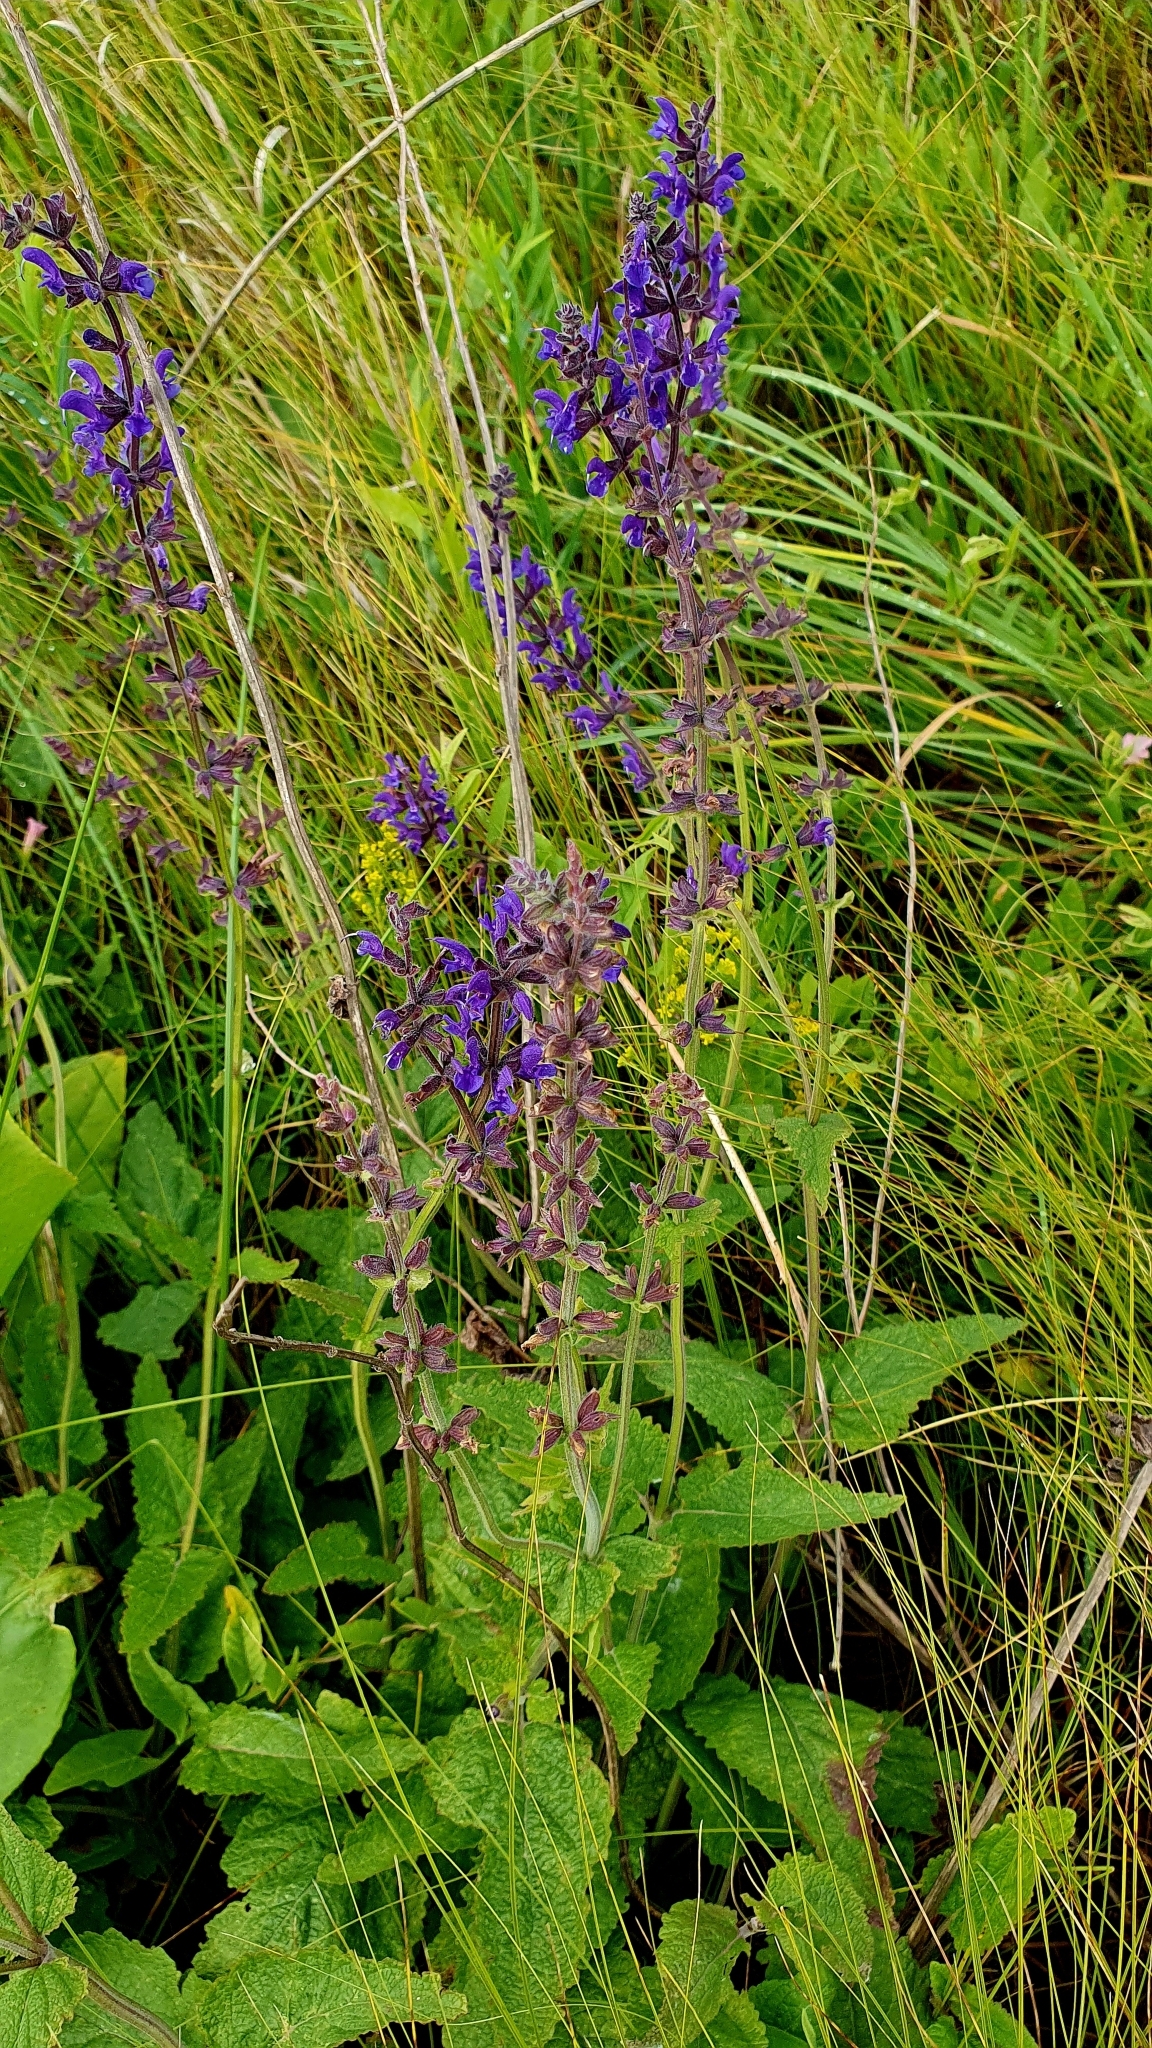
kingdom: Plantae
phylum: Tracheophyta
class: Magnoliopsida
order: Lamiales
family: Lamiaceae
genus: Salvia
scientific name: Salvia dumetorum
